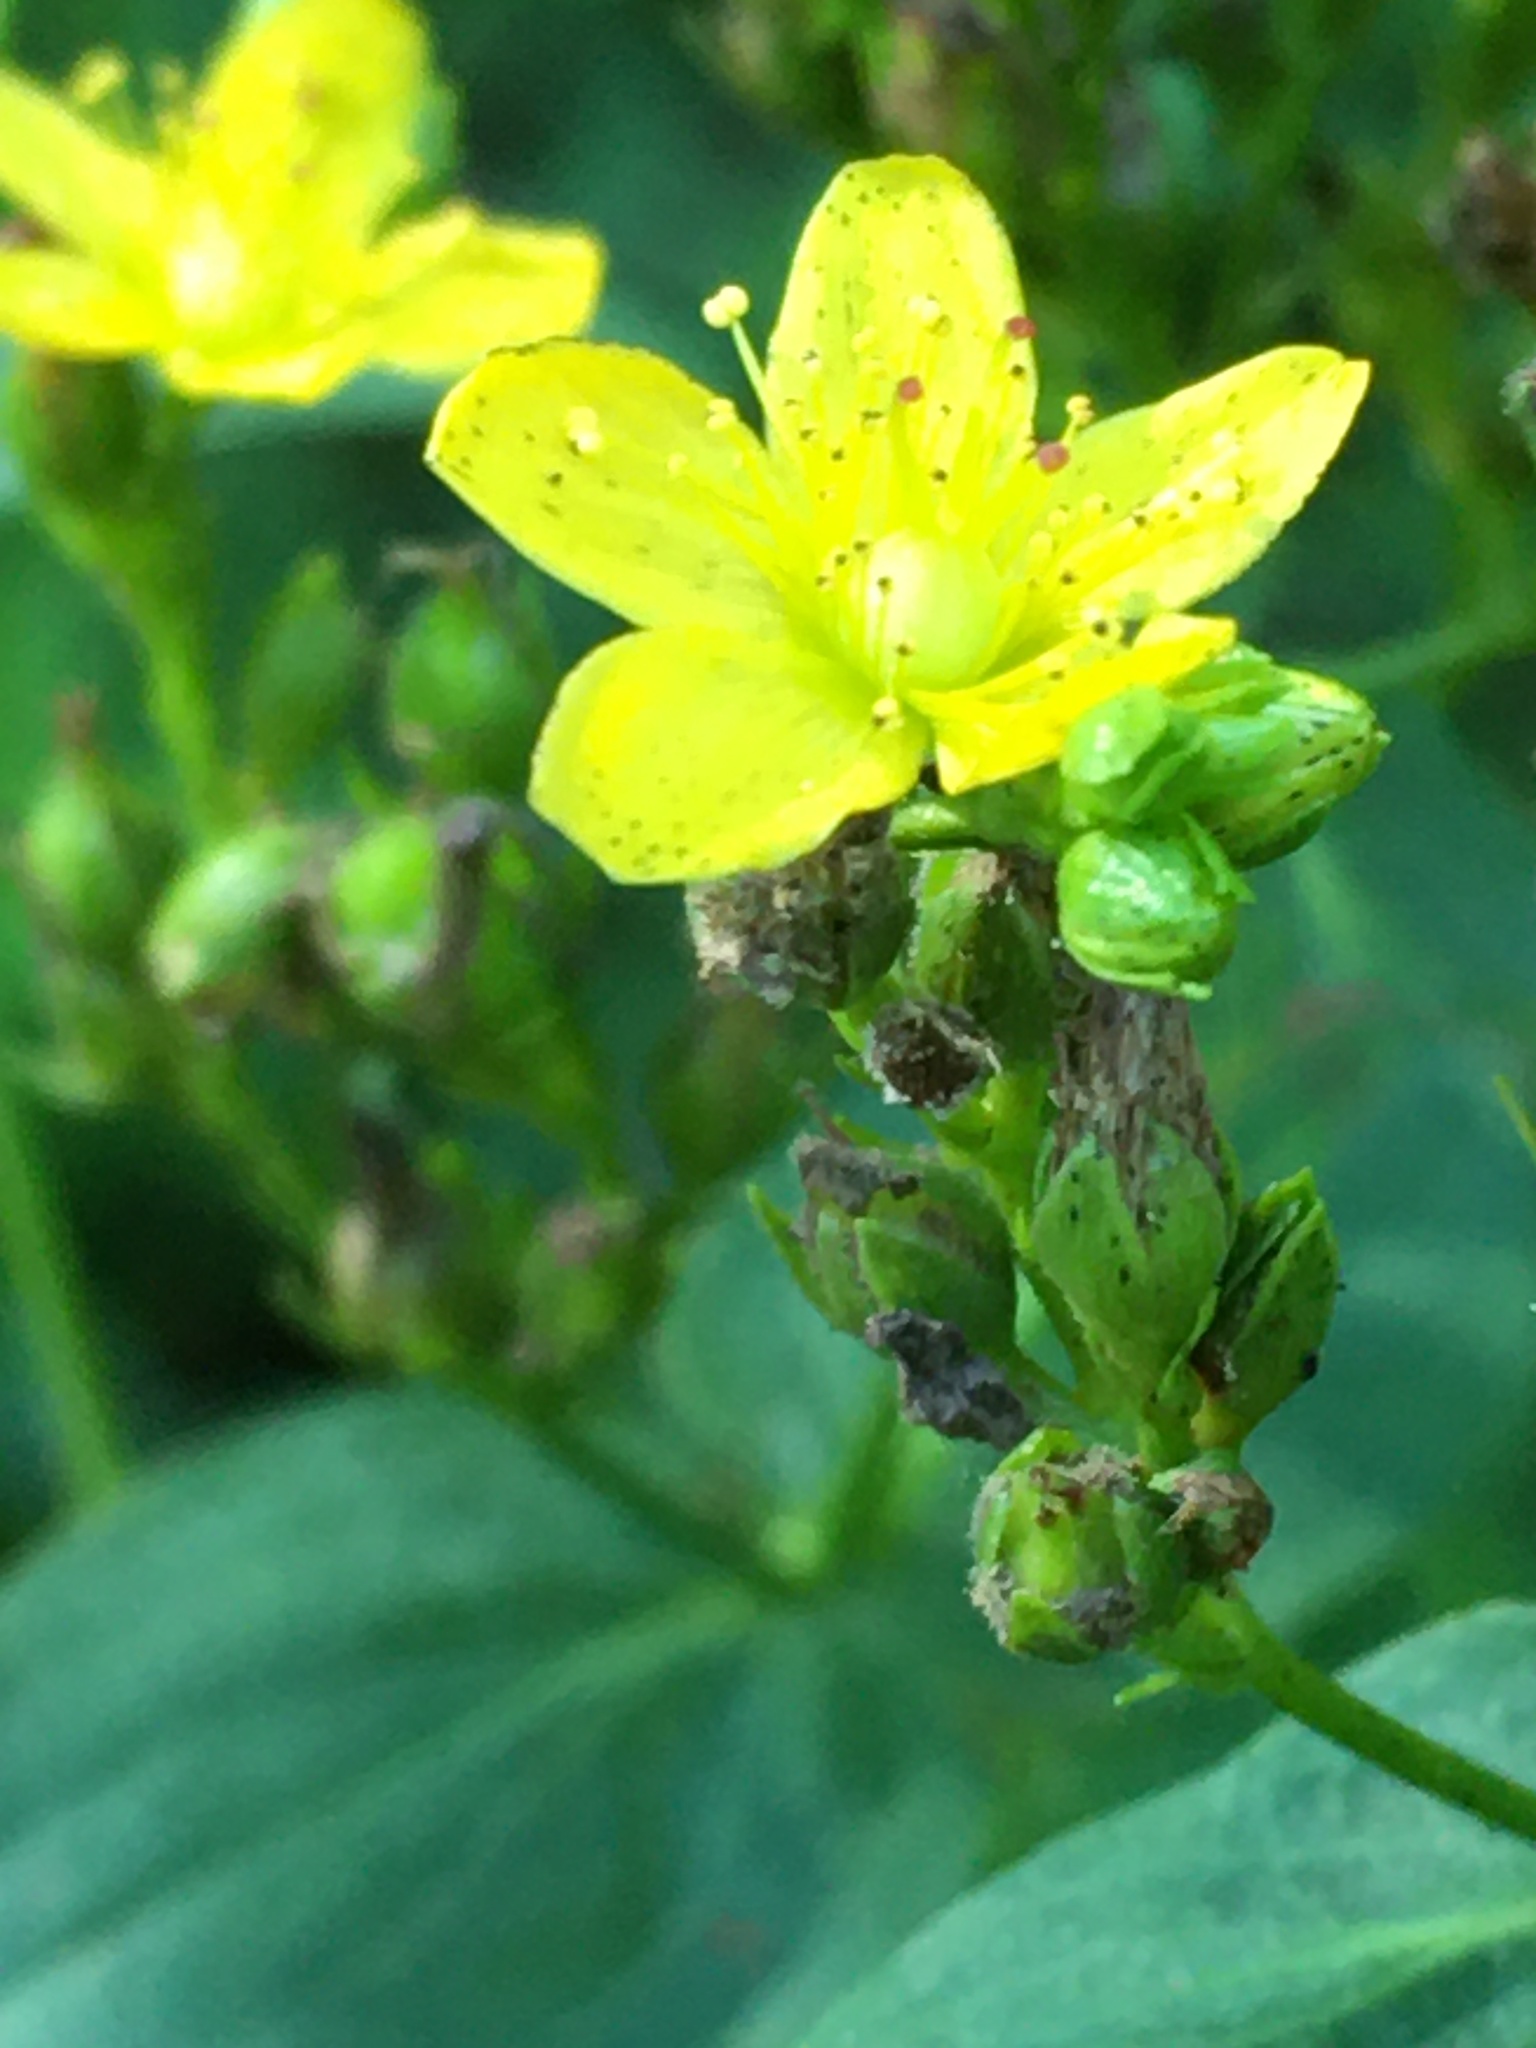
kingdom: Plantae
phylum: Tracheophyta
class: Magnoliopsida
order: Malpighiales
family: Hypericaceae
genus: Hypericum
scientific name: Hypericum punctatum
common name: Spotted st. john's-wort
